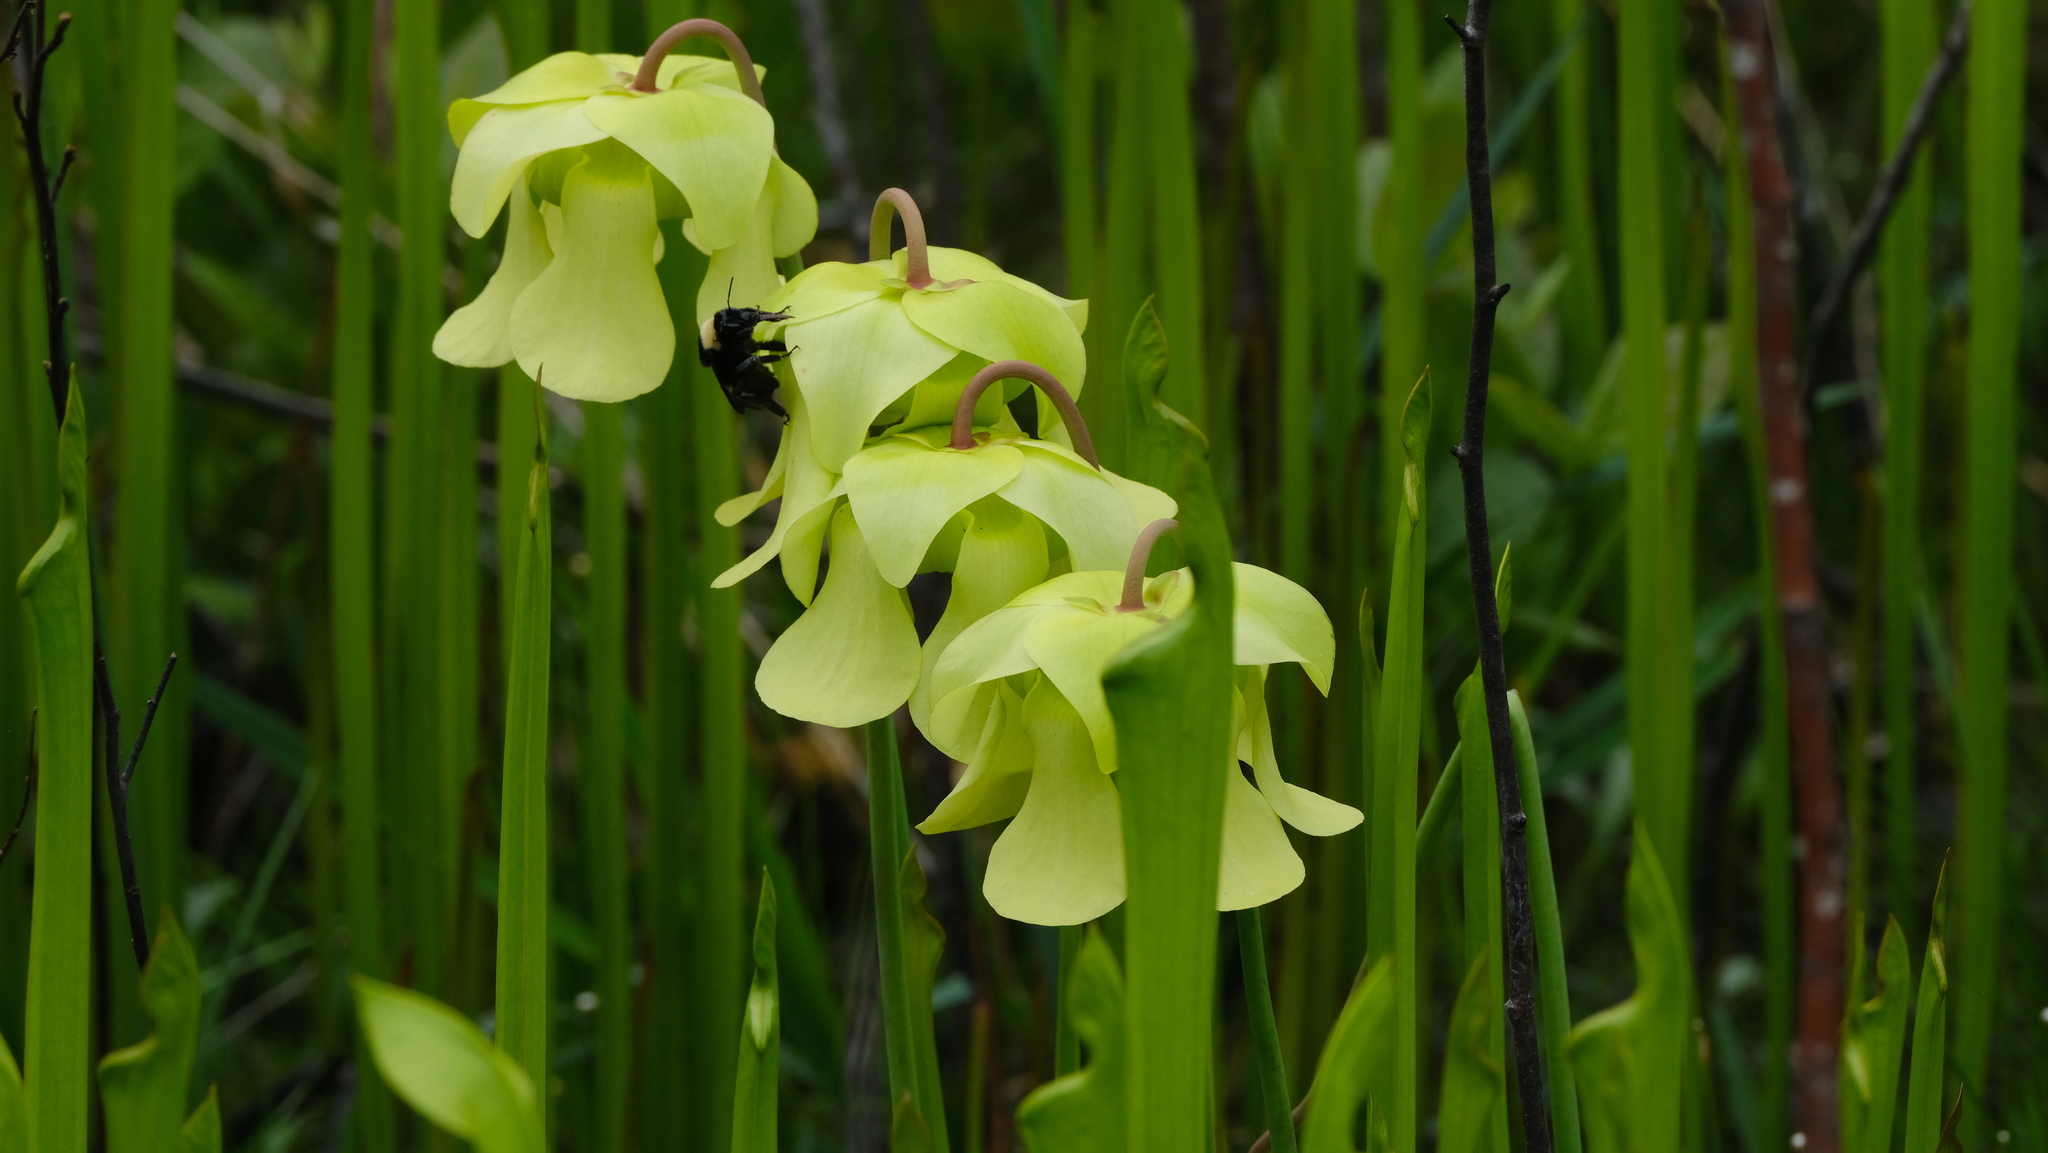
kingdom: Plantae
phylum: Tracheophyta
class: Magnoliopsida
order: Ericales
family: Sarraceniaceae
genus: Sarracenia
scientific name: Sarracenia alata
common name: Yellow trumpets
